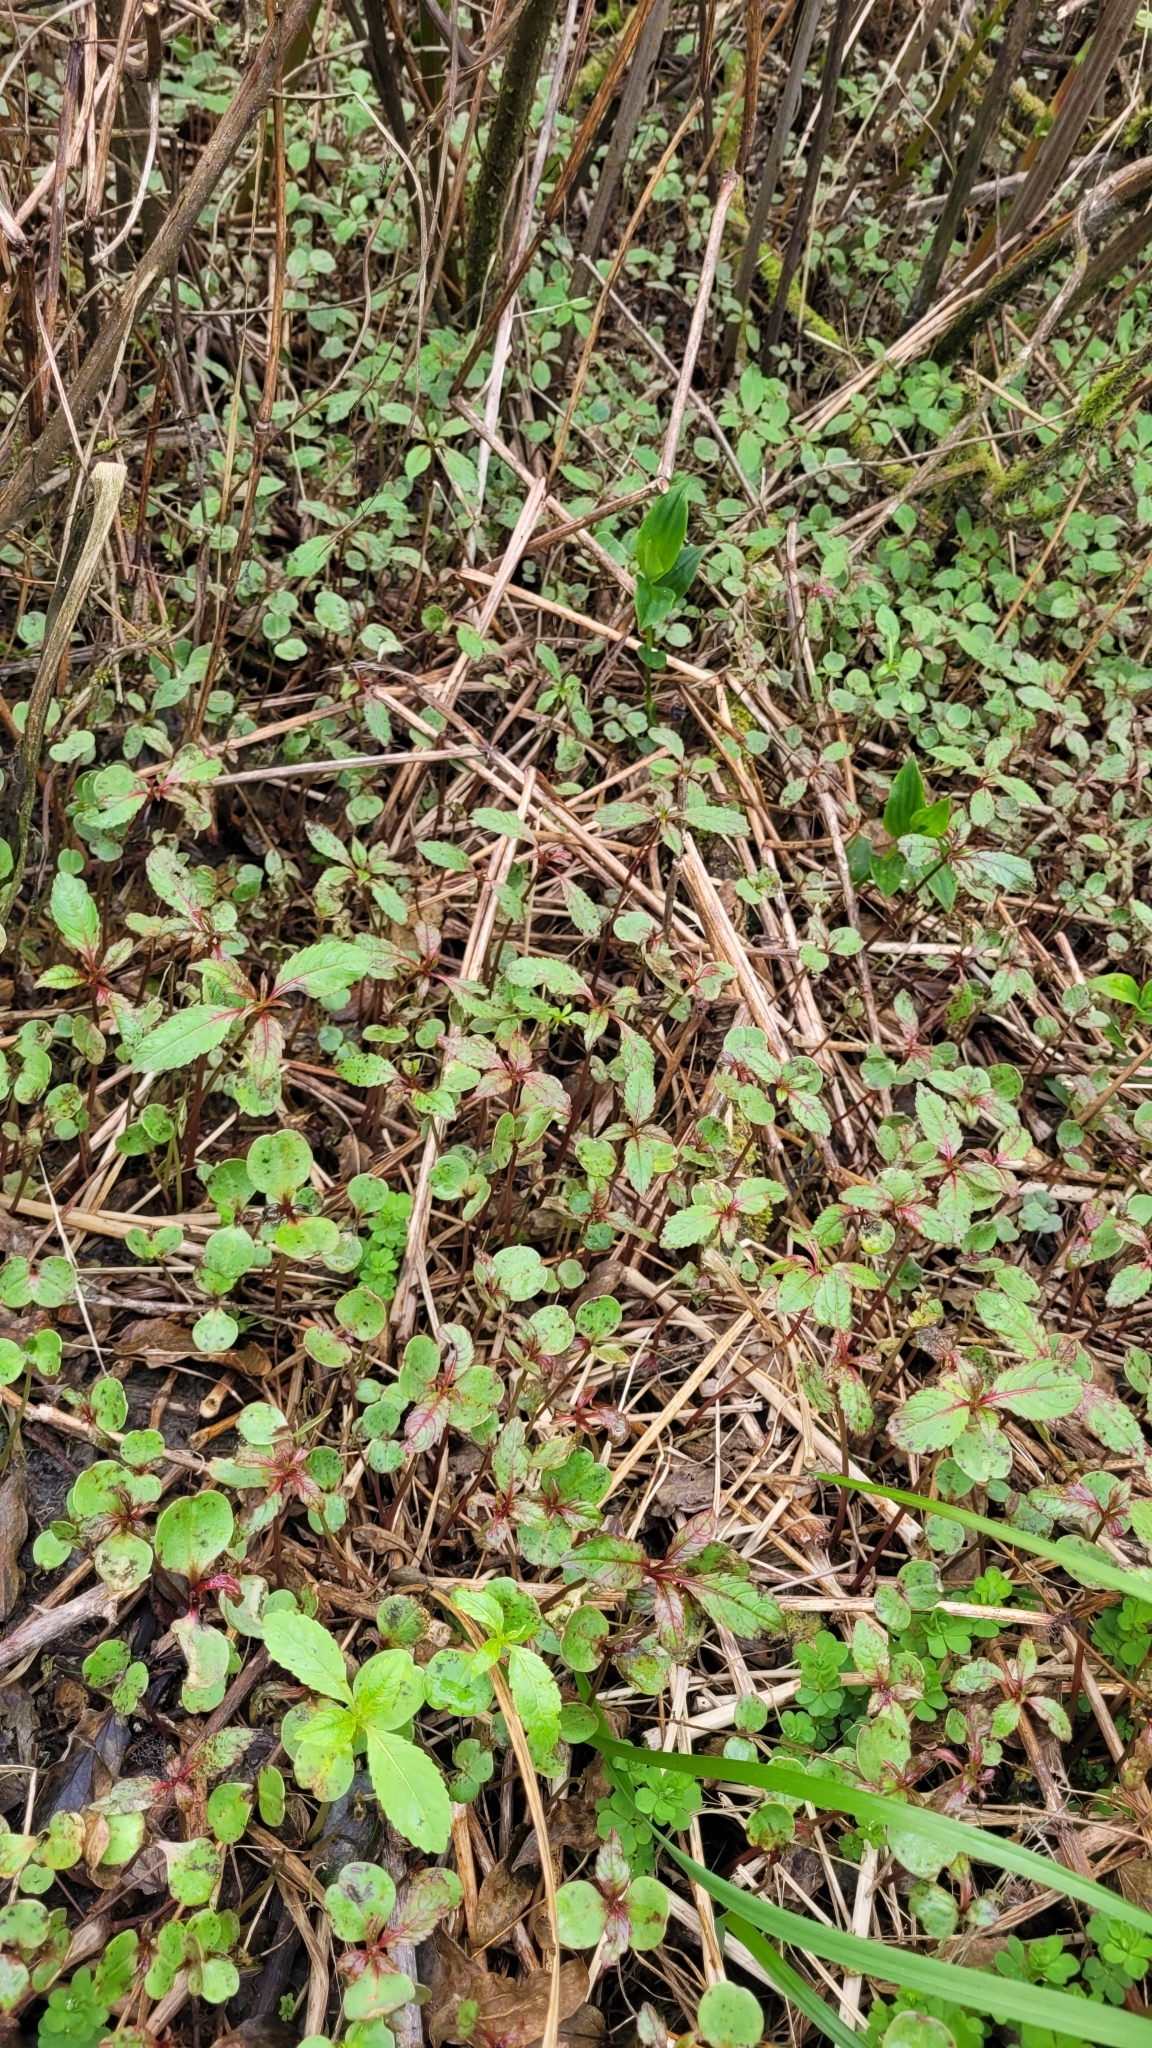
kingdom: Plantae
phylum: Tracheophyta
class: Magnoliopsida
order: Ericales
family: Balsaminaceae
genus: Impatiens
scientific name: Impatiens glandulifera
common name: Himalayan balsam
